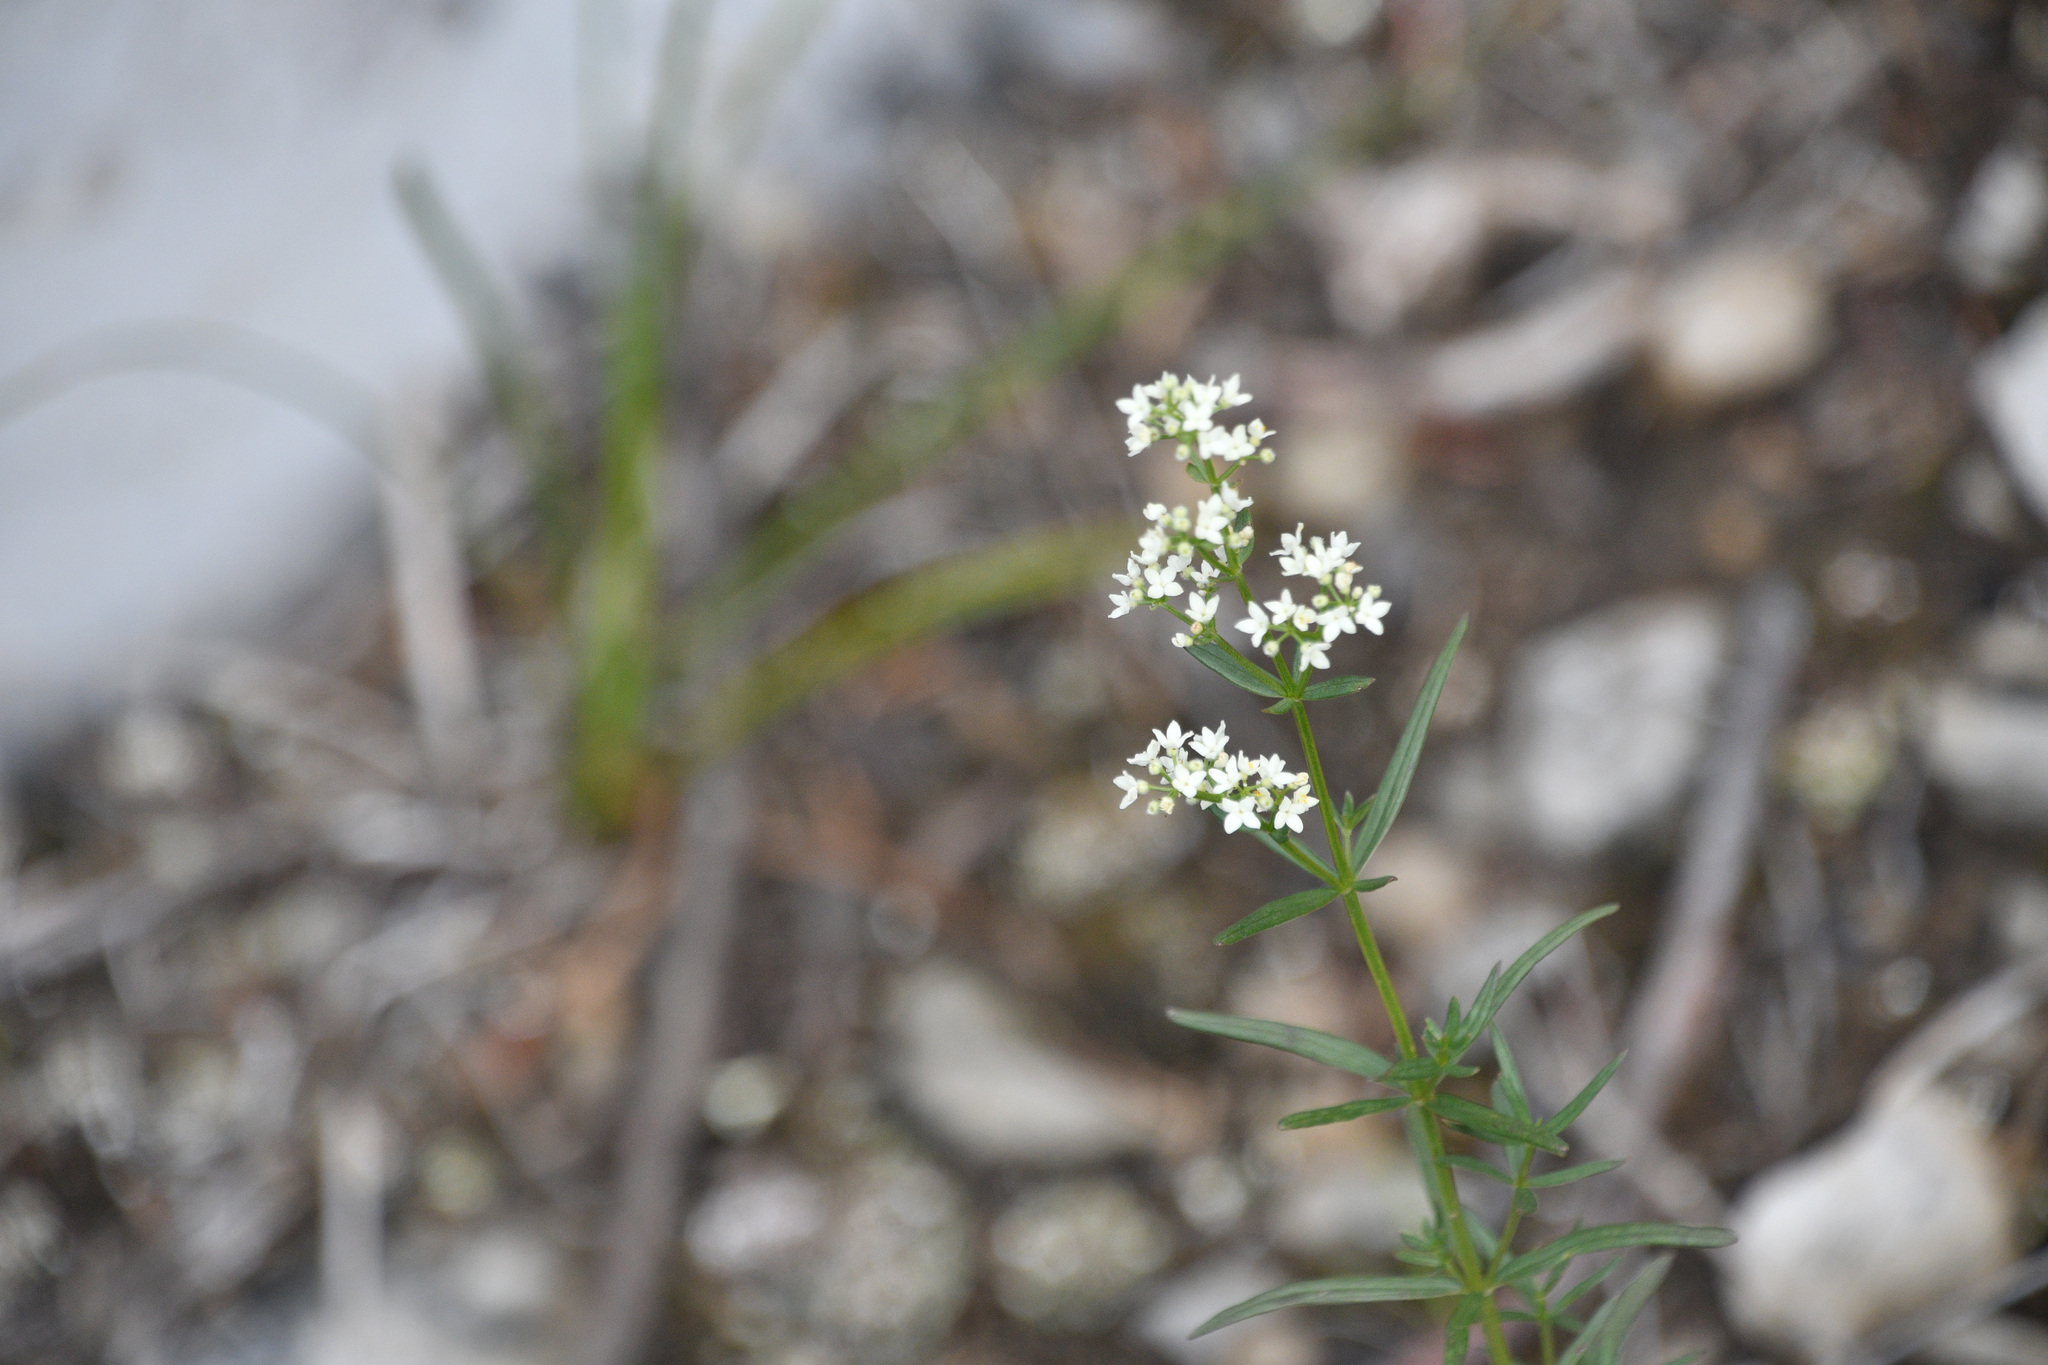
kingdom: Plantae
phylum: Tracheophyta
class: Magnoliopsida
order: Gentianales
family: Rubiaceae
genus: Galium
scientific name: Galium boreale
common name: Northern bedstraw
